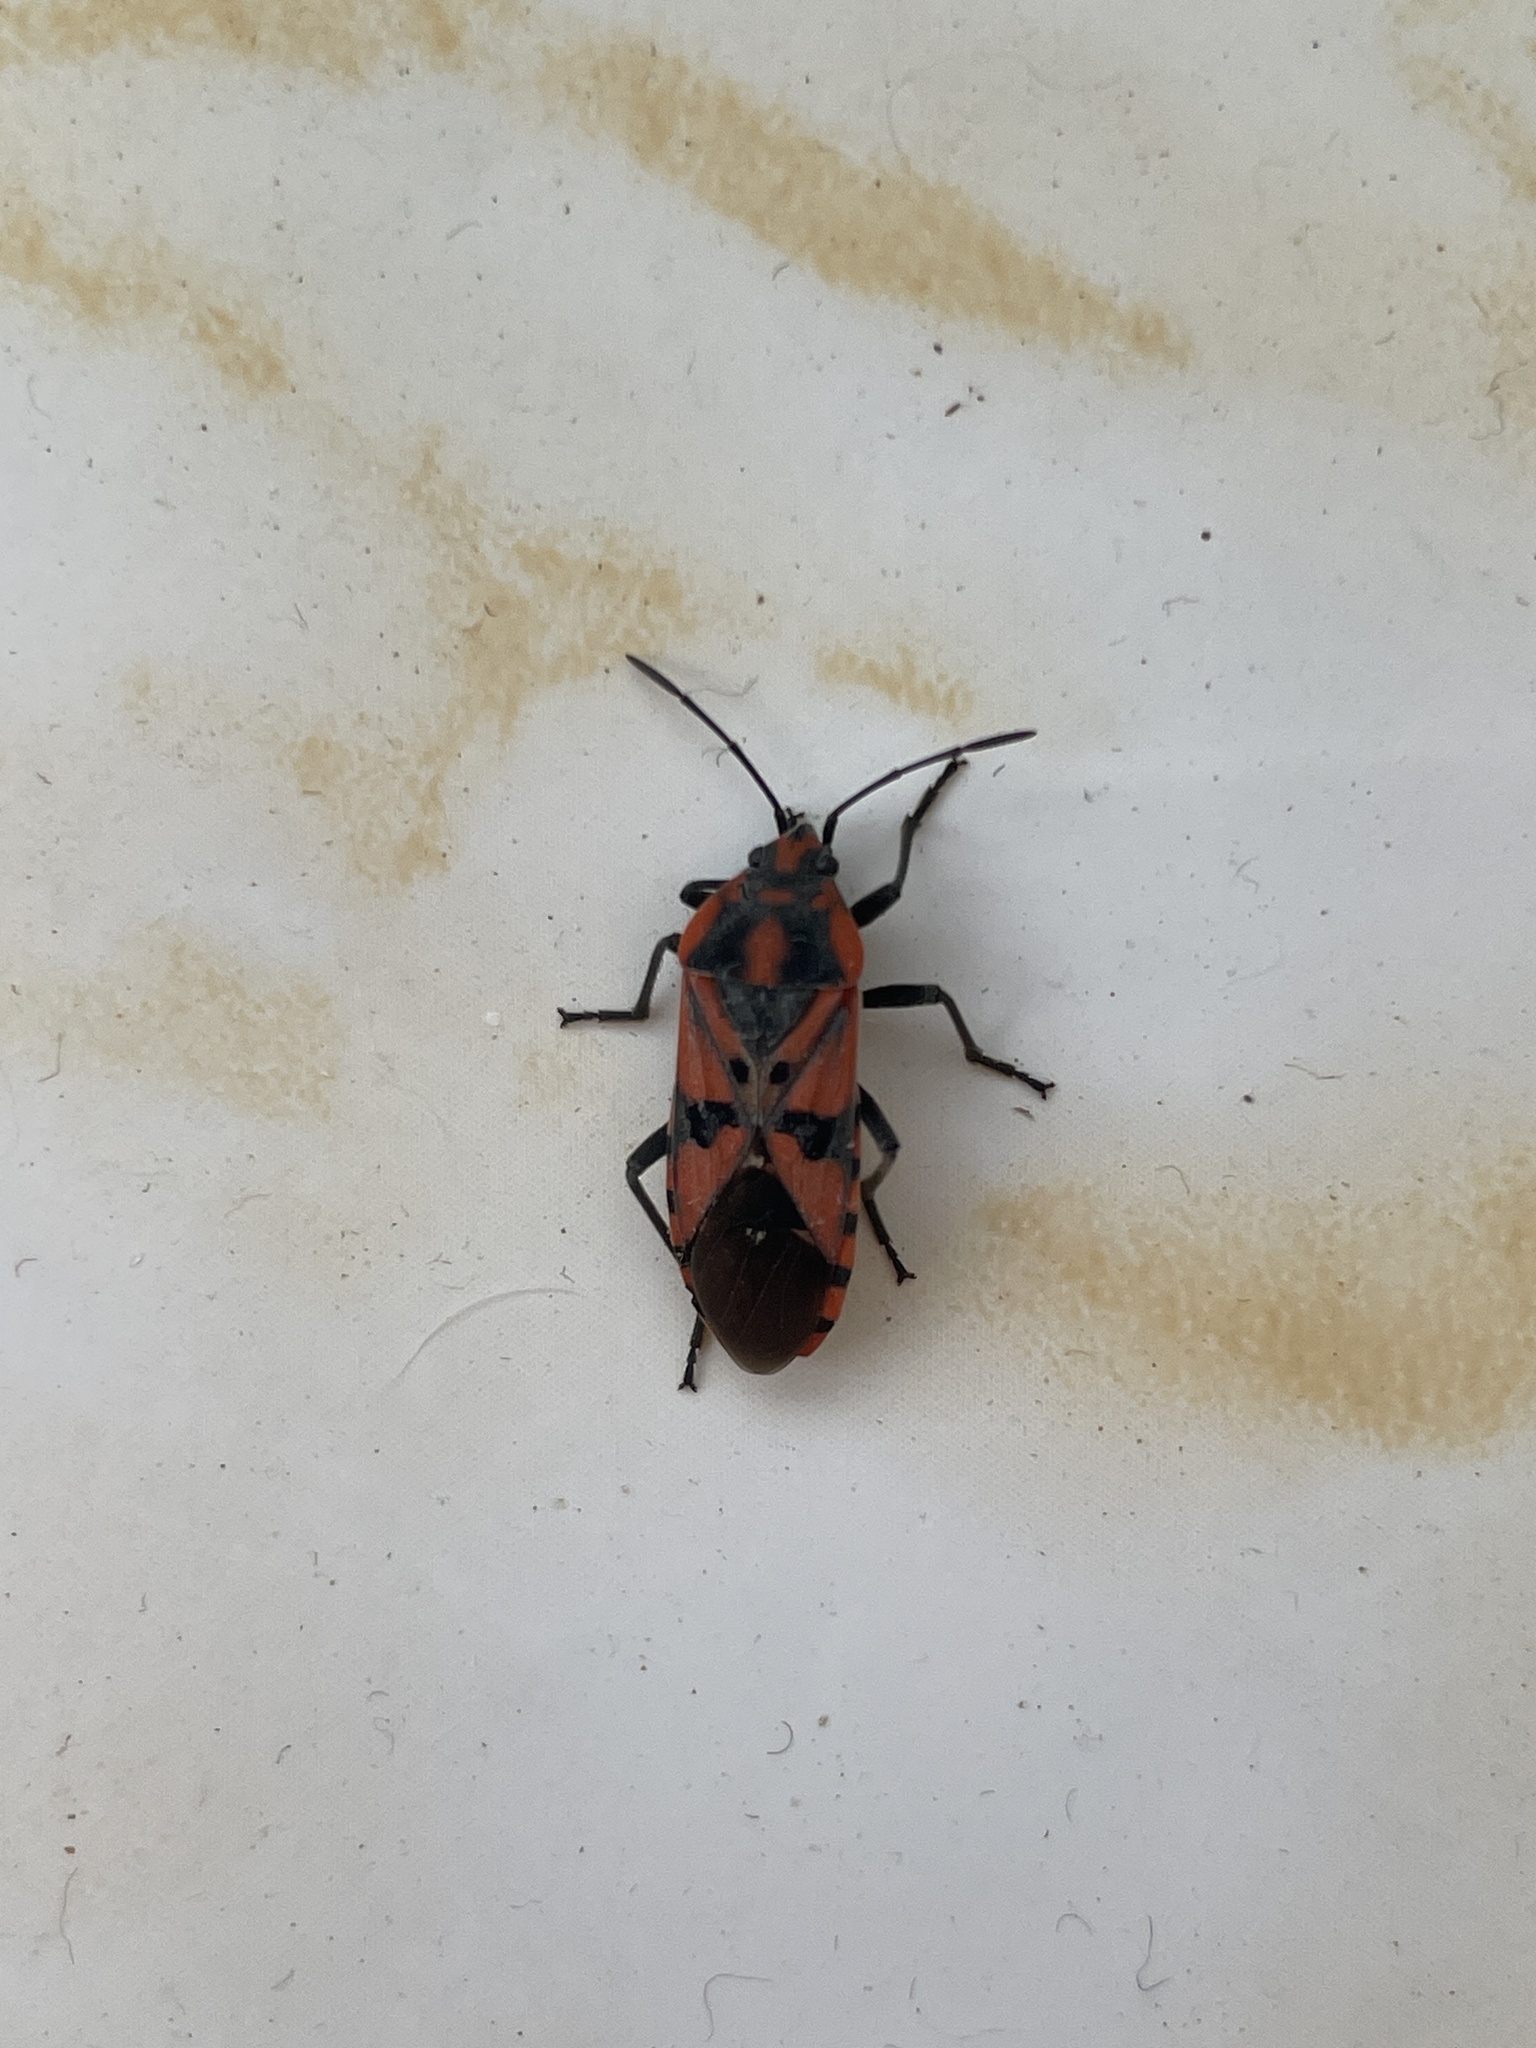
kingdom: Animalia
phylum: Arthropoda
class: Insecta
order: Hemiptera
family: Lygaeidae
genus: Spilostethus
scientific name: Spilostethus pandurus
